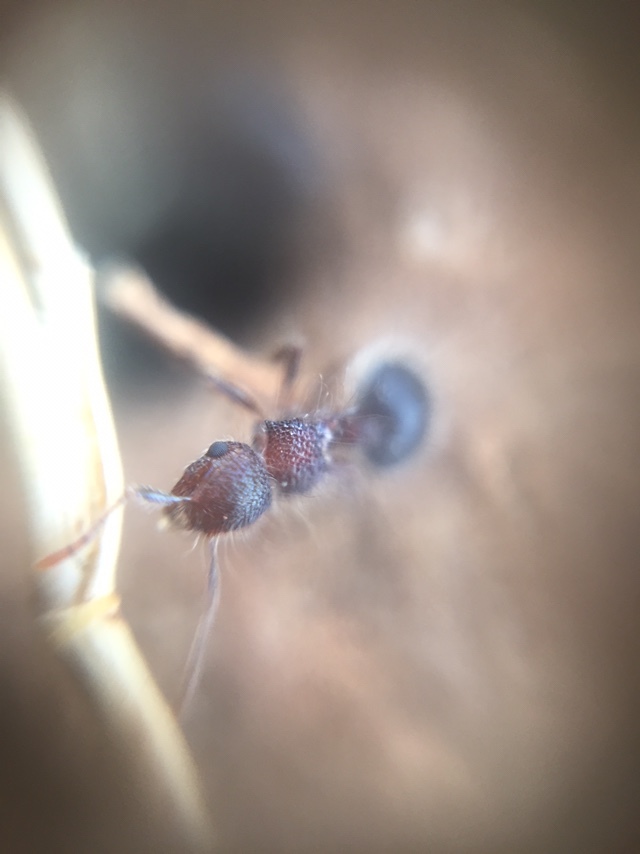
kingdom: Animalia
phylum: Arthropoda
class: Insecta
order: Hymenoptera
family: Formicidae
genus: Meranoplus
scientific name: Meranoplus bicolor
